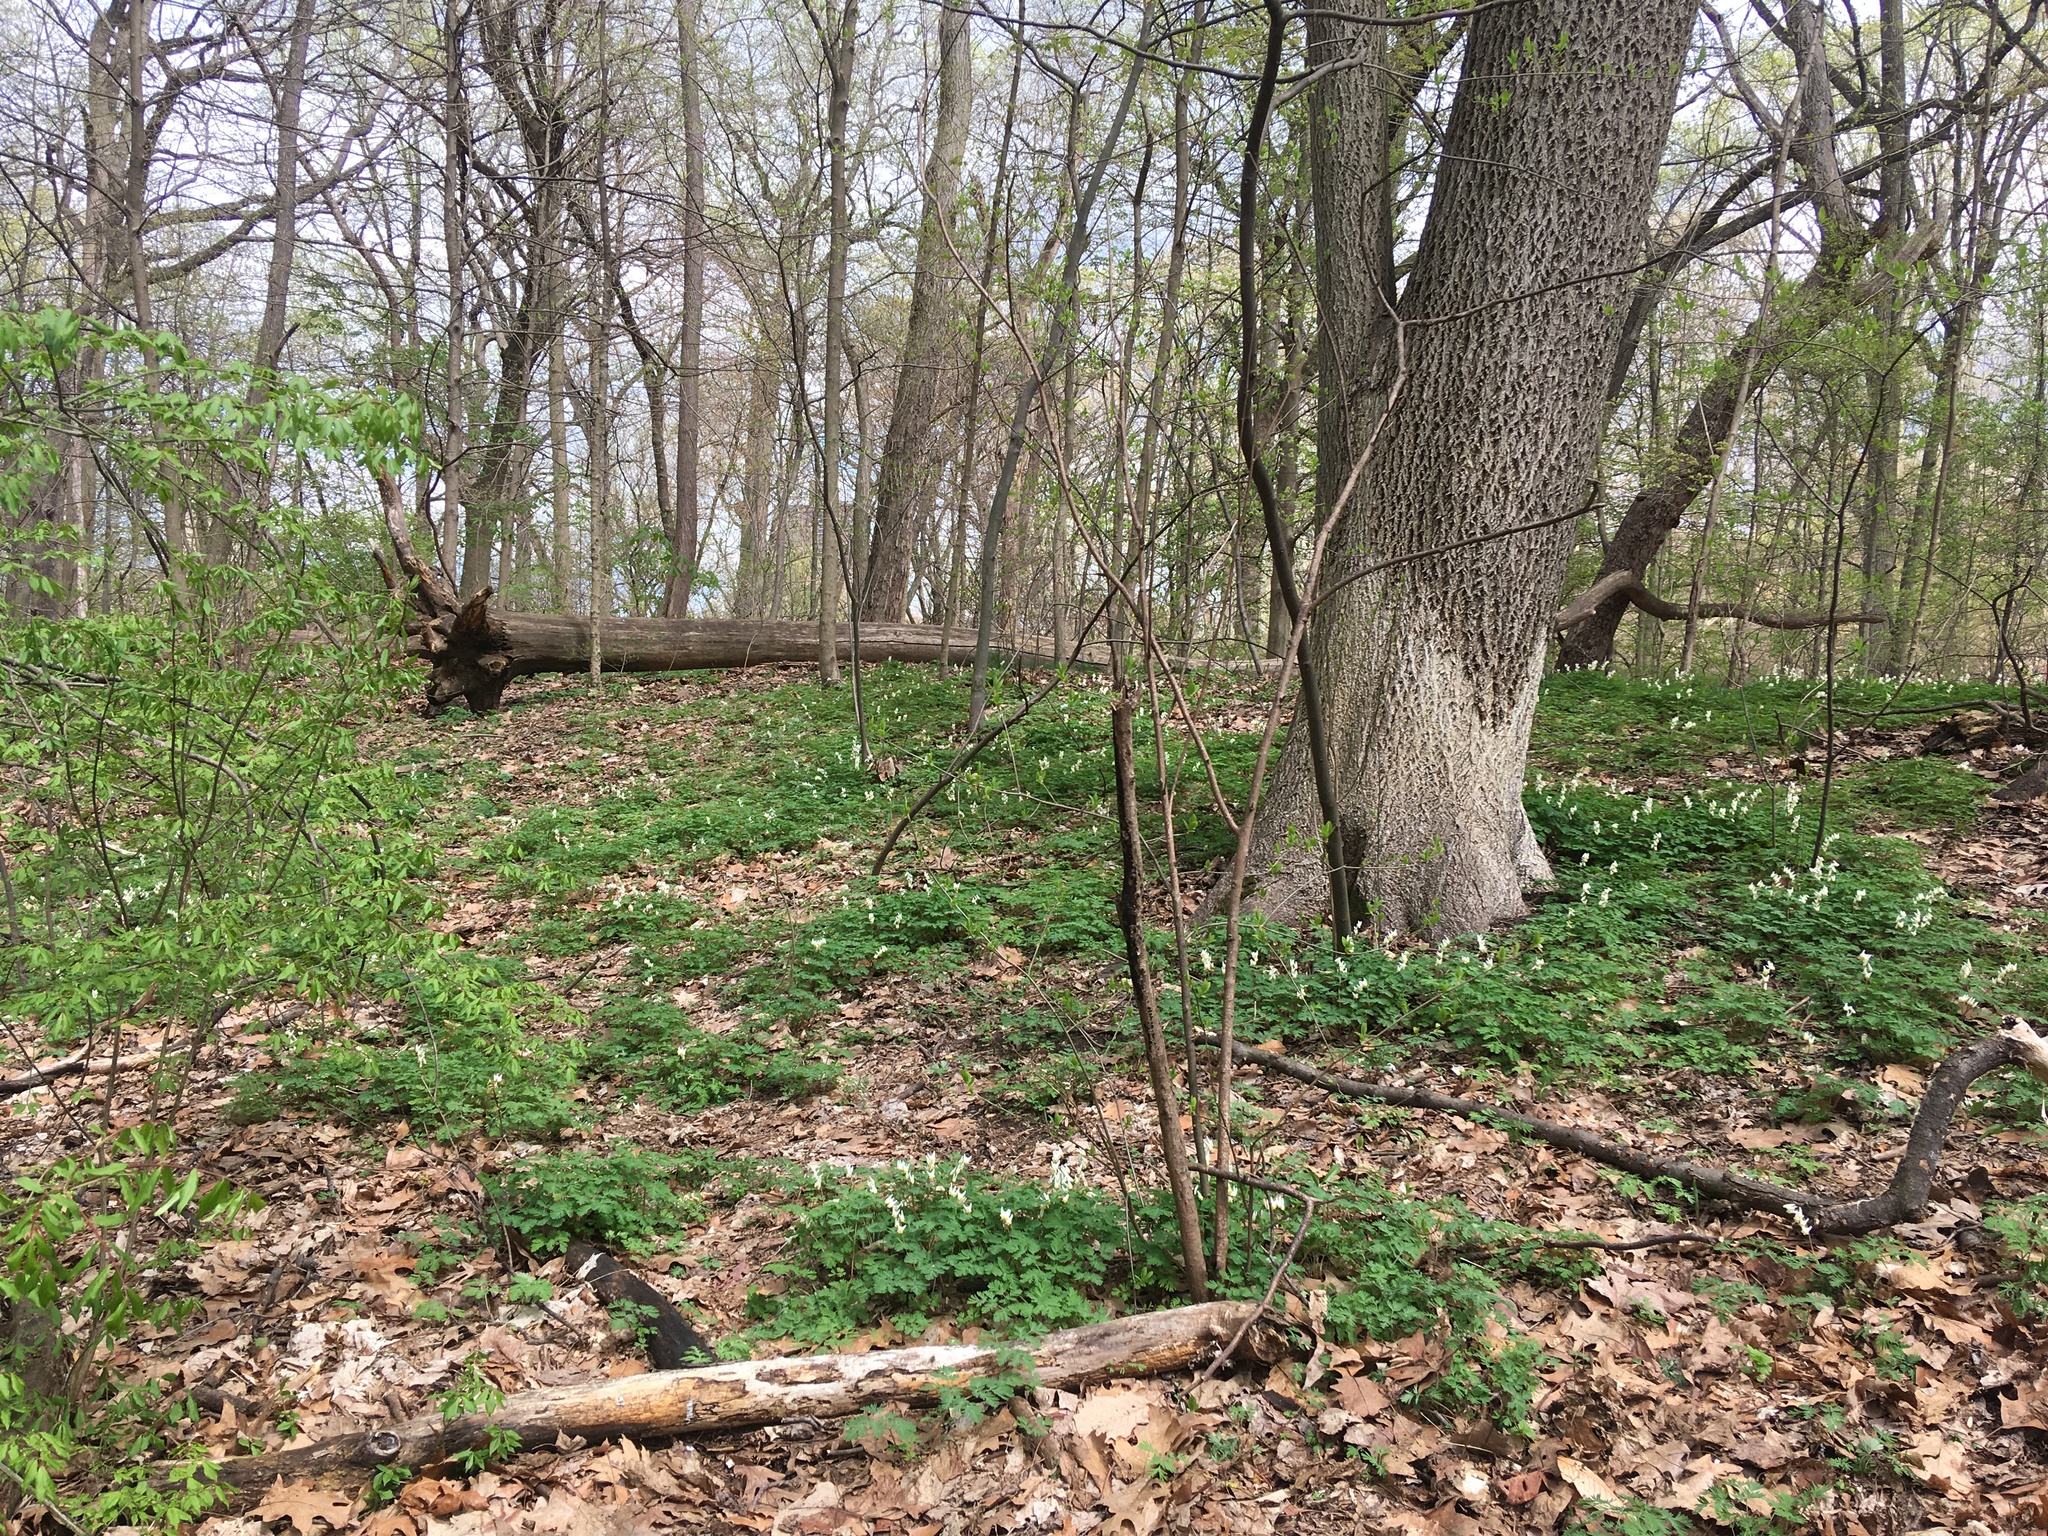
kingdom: Plantae
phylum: Tracheophyta
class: Magnoliopsida
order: Ranunculales
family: Papaveraceae
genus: Dicentra
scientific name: Dicentra cucullaria
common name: Dutchman's breeches
